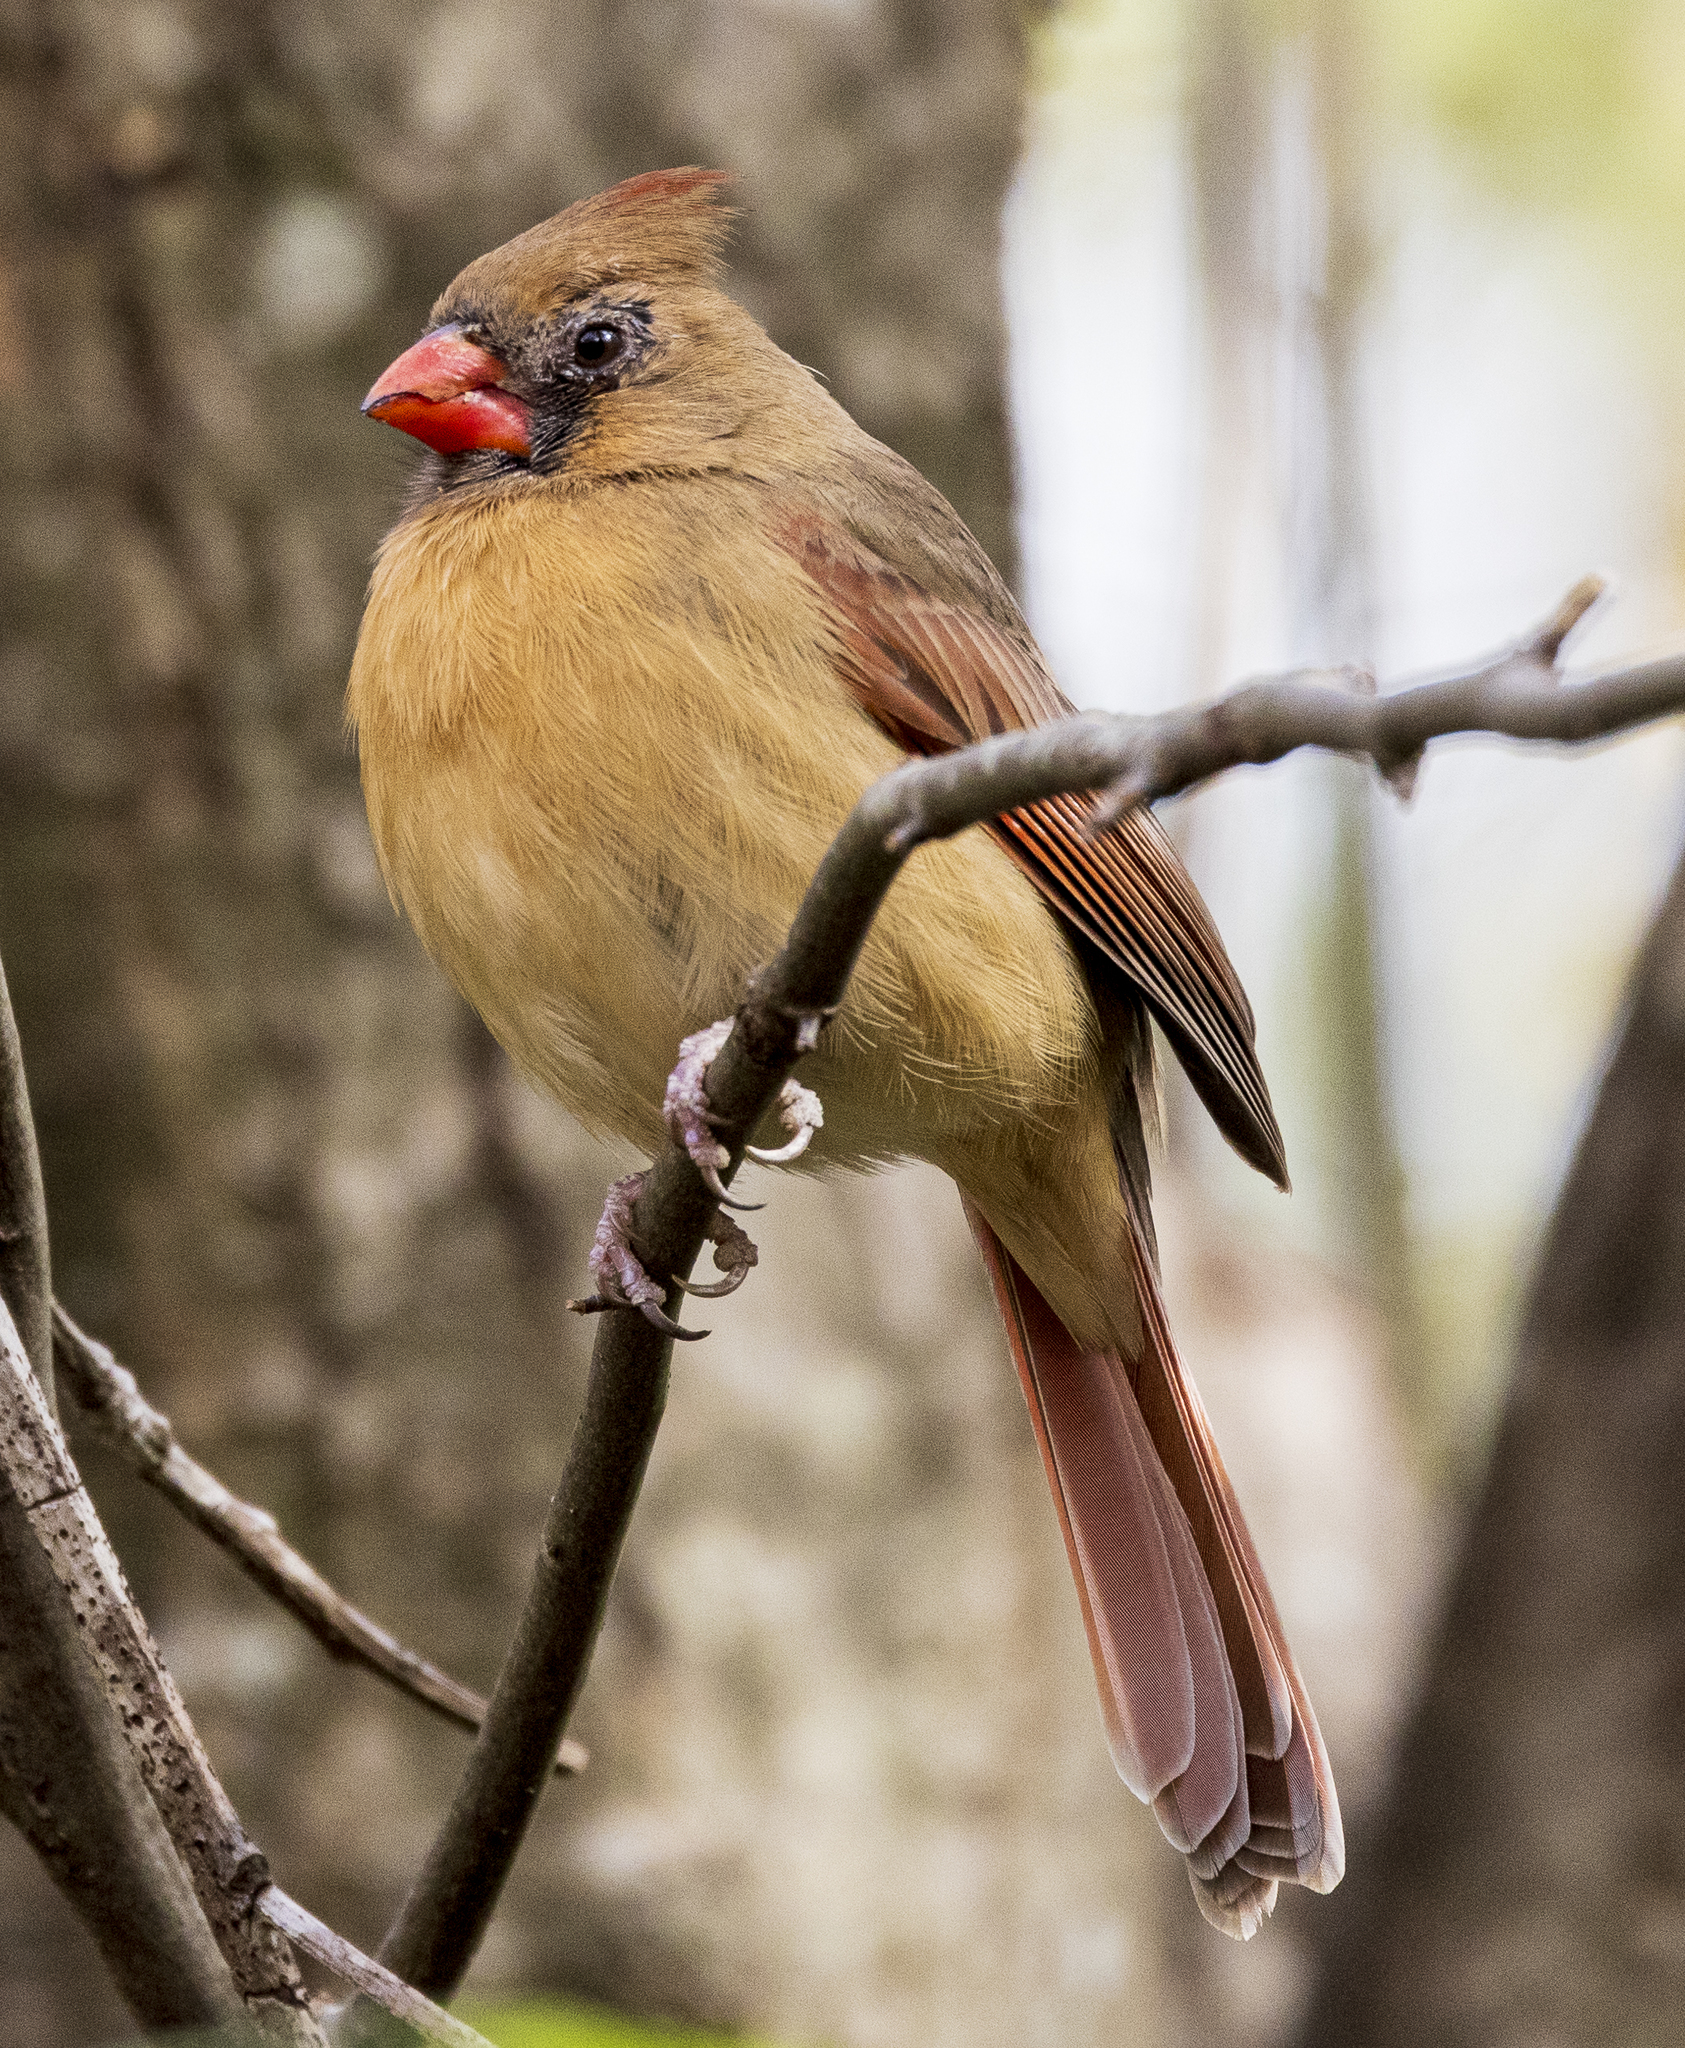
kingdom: Animalia
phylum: Chordata
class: Aves
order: Passeriformes
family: Cardinalidae
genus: Cardinalis
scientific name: Cardinalis cardinalis
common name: Northern cardinal
